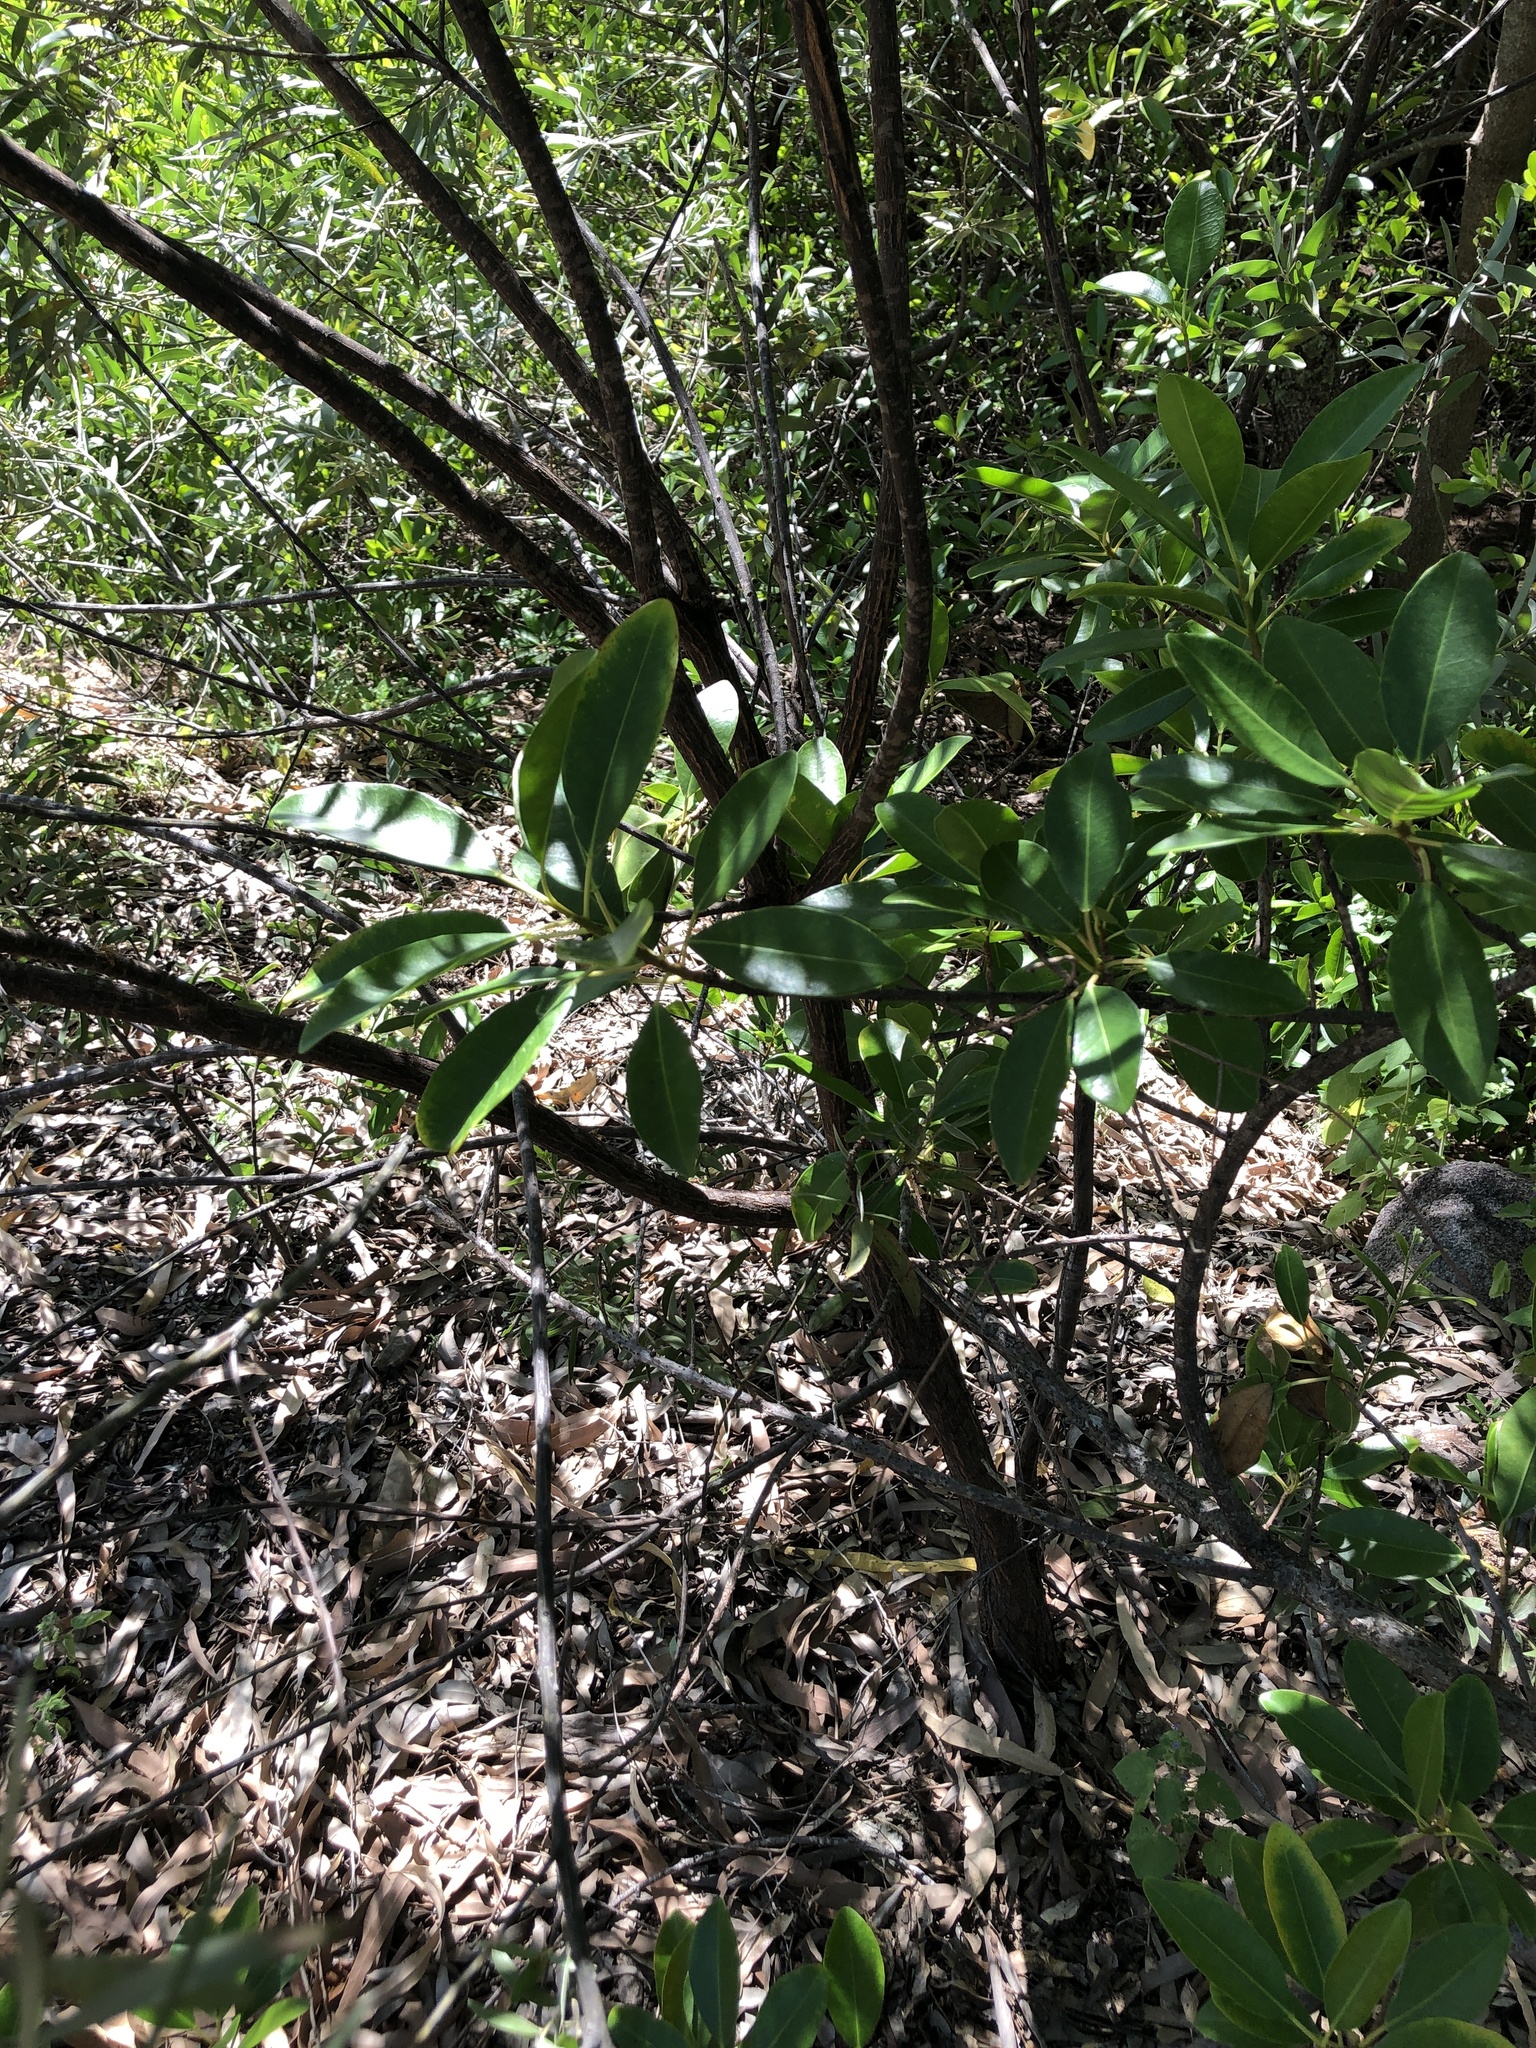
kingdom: Plantae
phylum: Tracheophyta
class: Magnoliopsida
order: Fabales
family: Fabaceae
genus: Acacia
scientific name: Acacia leptostachya
